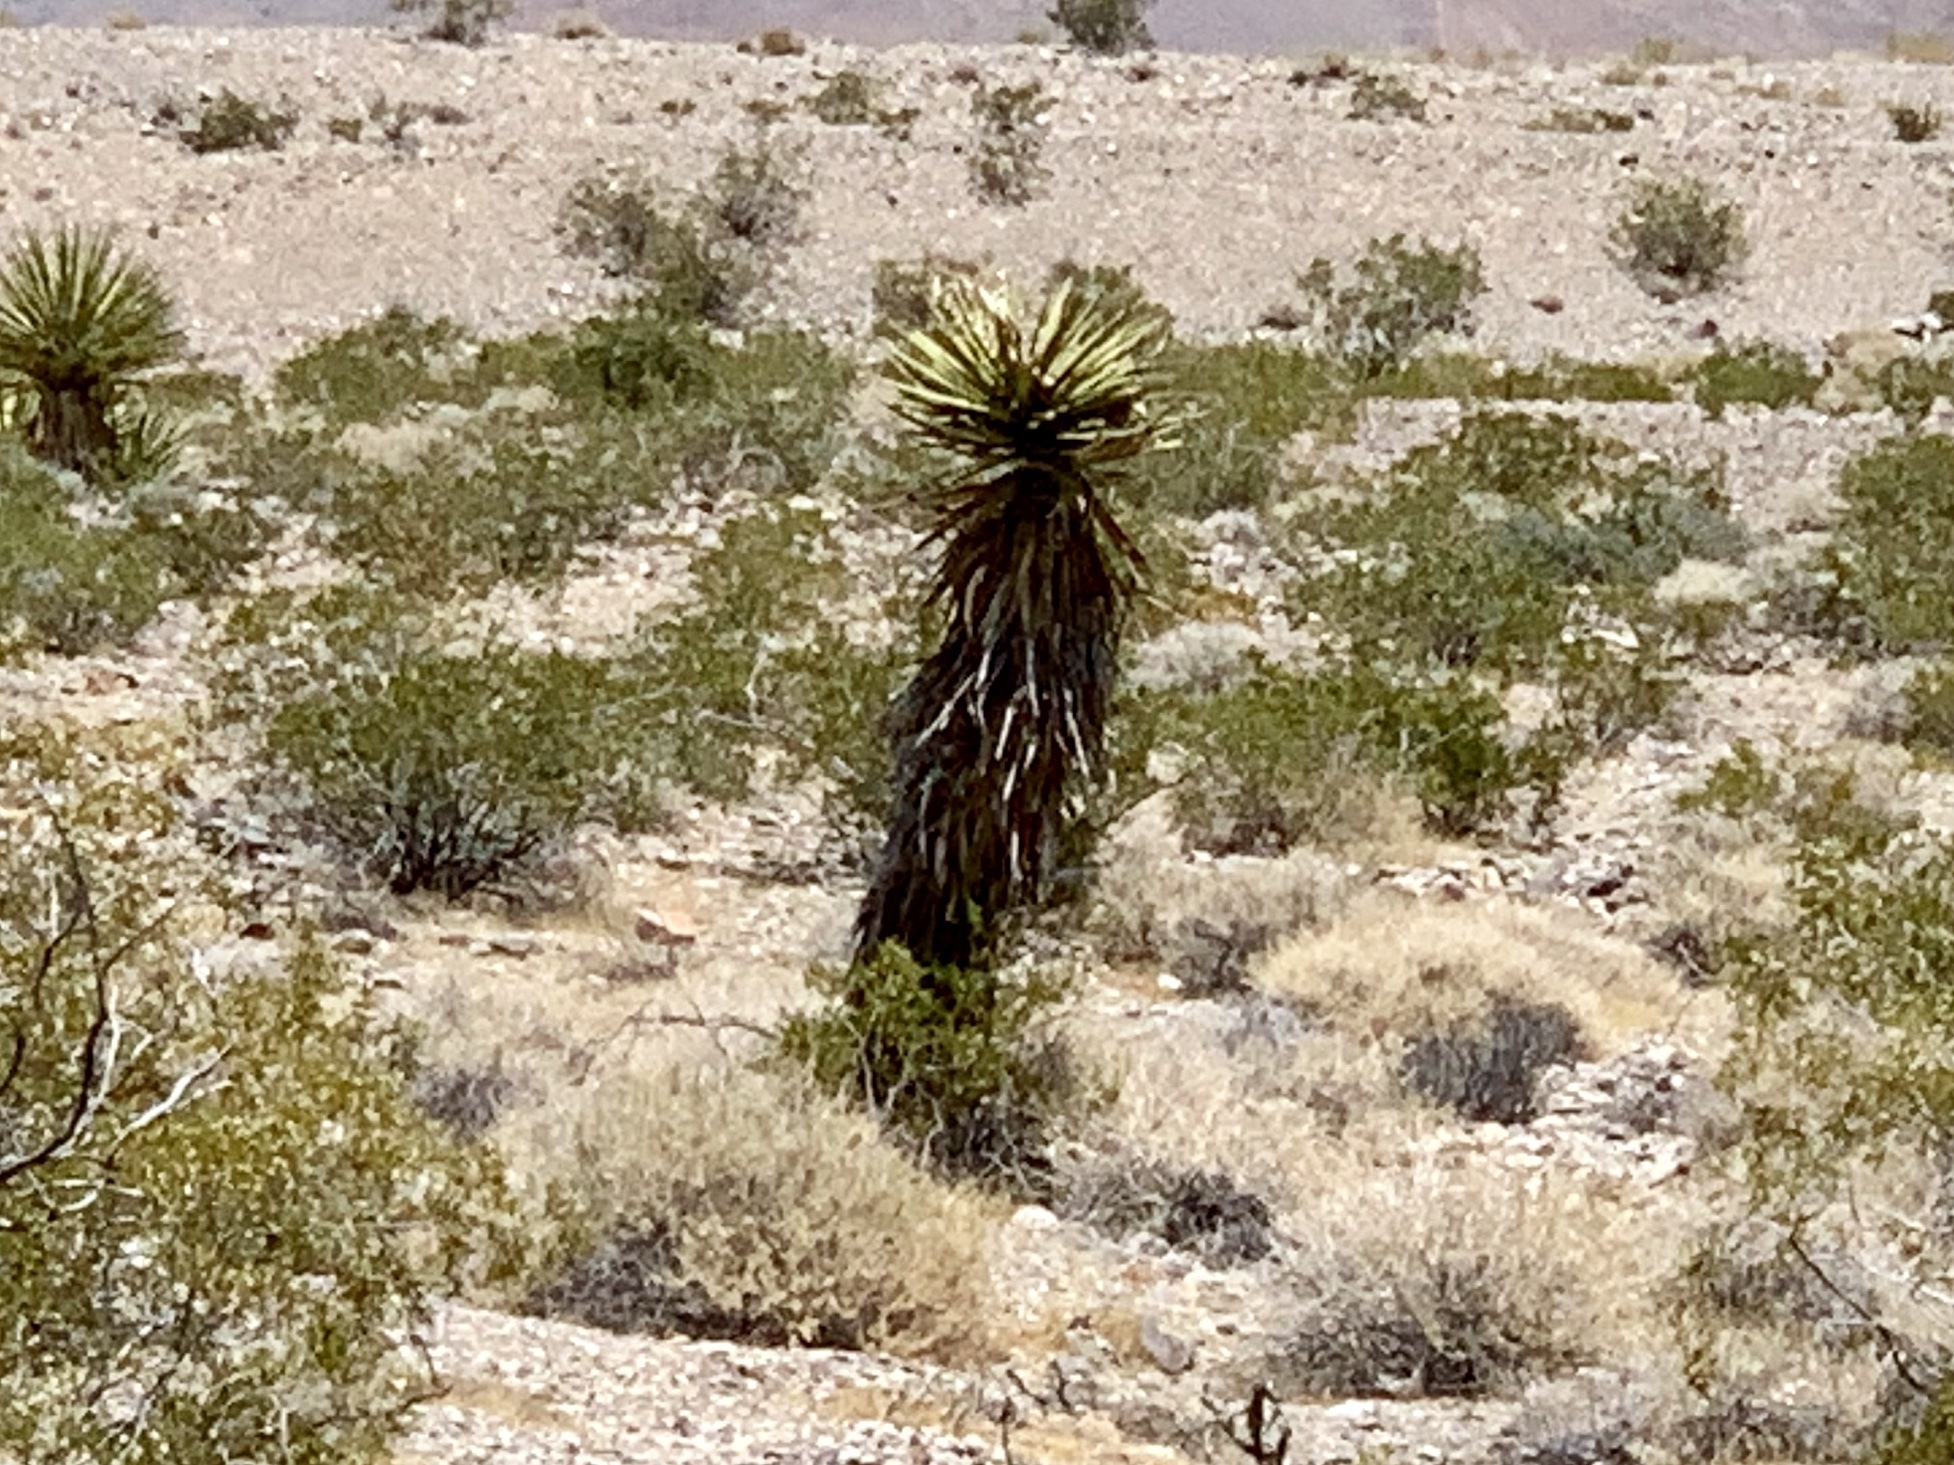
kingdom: Plantae
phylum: Tracheophyta
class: Liliopsida
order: Asparagales
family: Asparagaceae
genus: Yucca
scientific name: Yucca schidigera
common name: Mojave yucca
